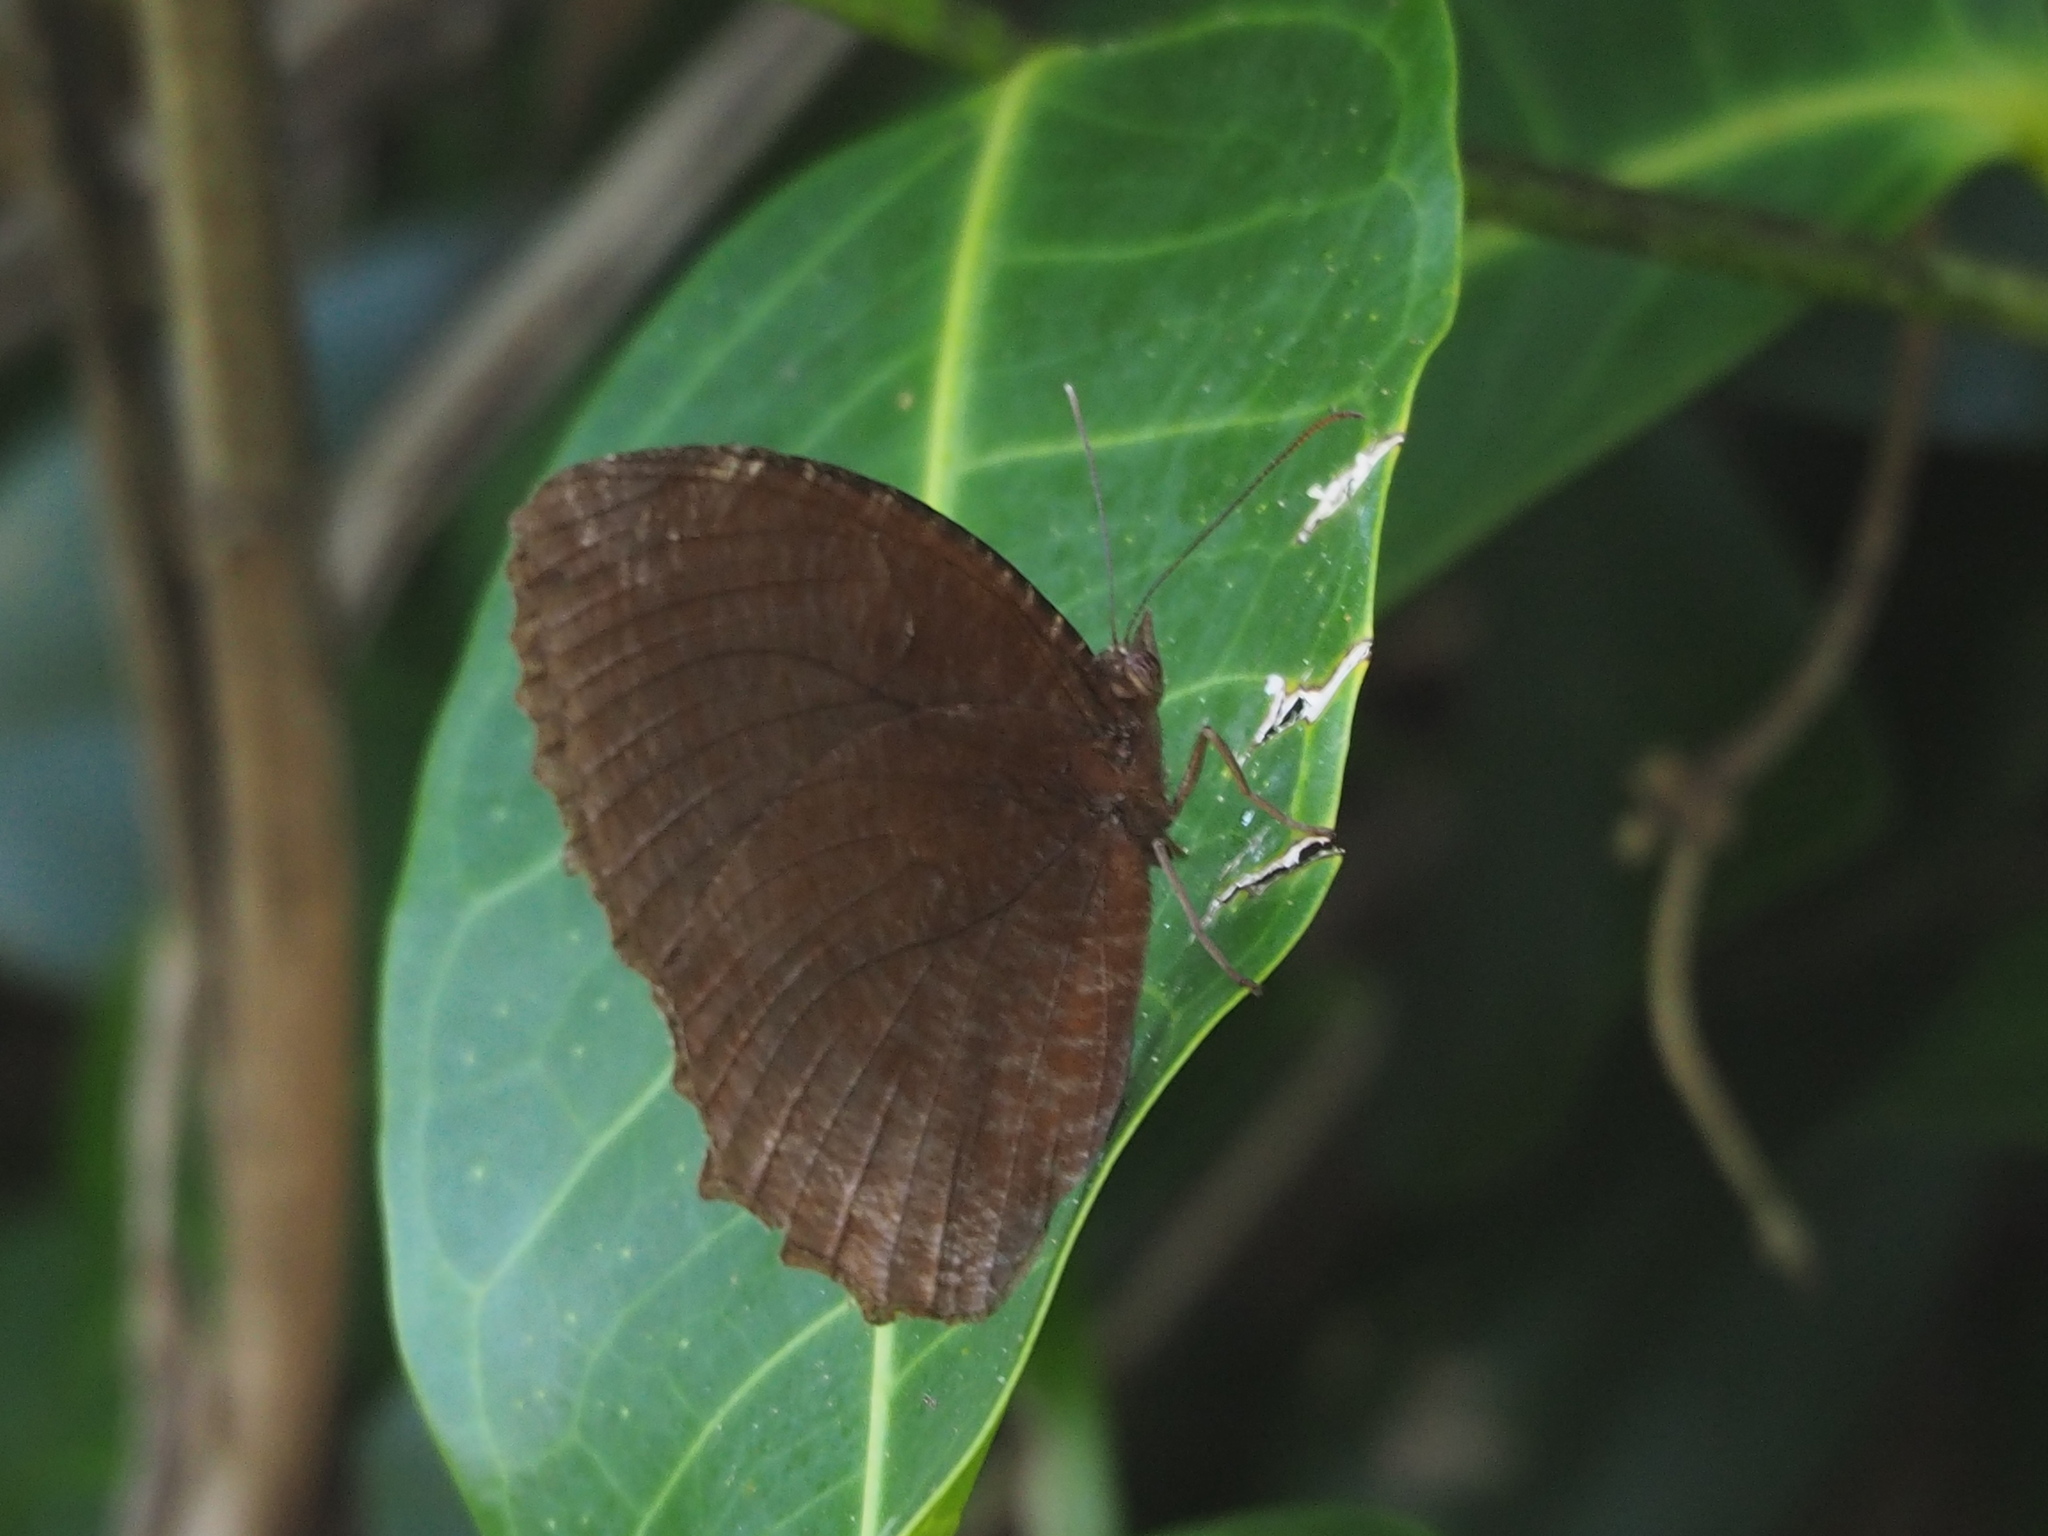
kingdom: Animalia
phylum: Arthropoda
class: Insecta
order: Lepidoptera
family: Nymphalidae
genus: Elymnias
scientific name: Elymnias hypermnestra
